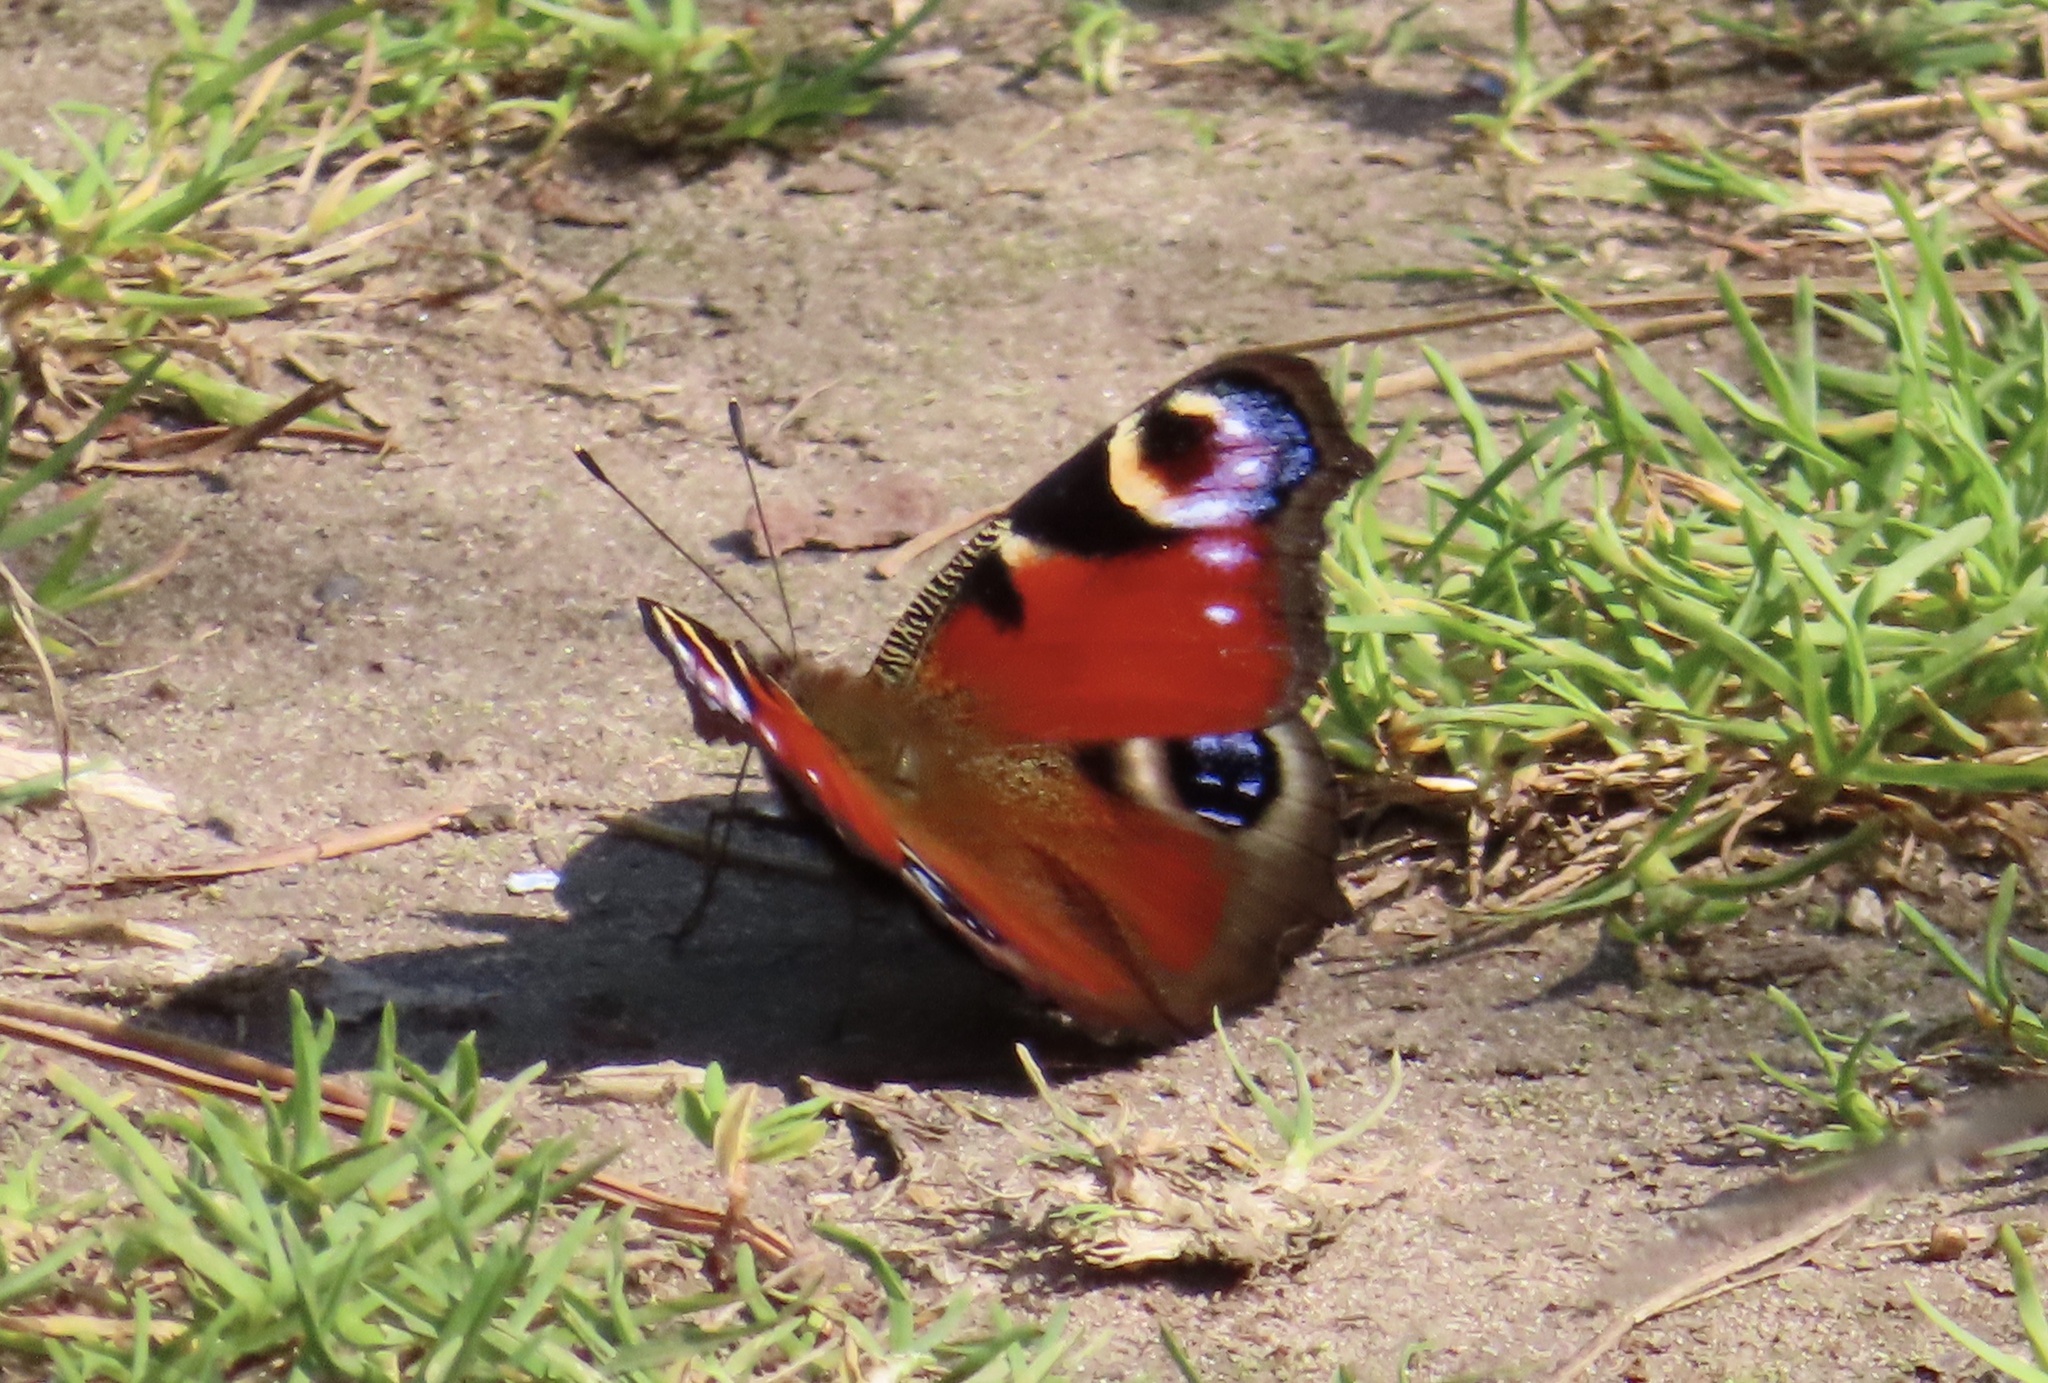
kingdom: Animalia
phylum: Arthropoda
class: Insecta
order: Lepidoptera
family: Nymphalidae
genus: Aglais
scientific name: Aglais io
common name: Peacock
